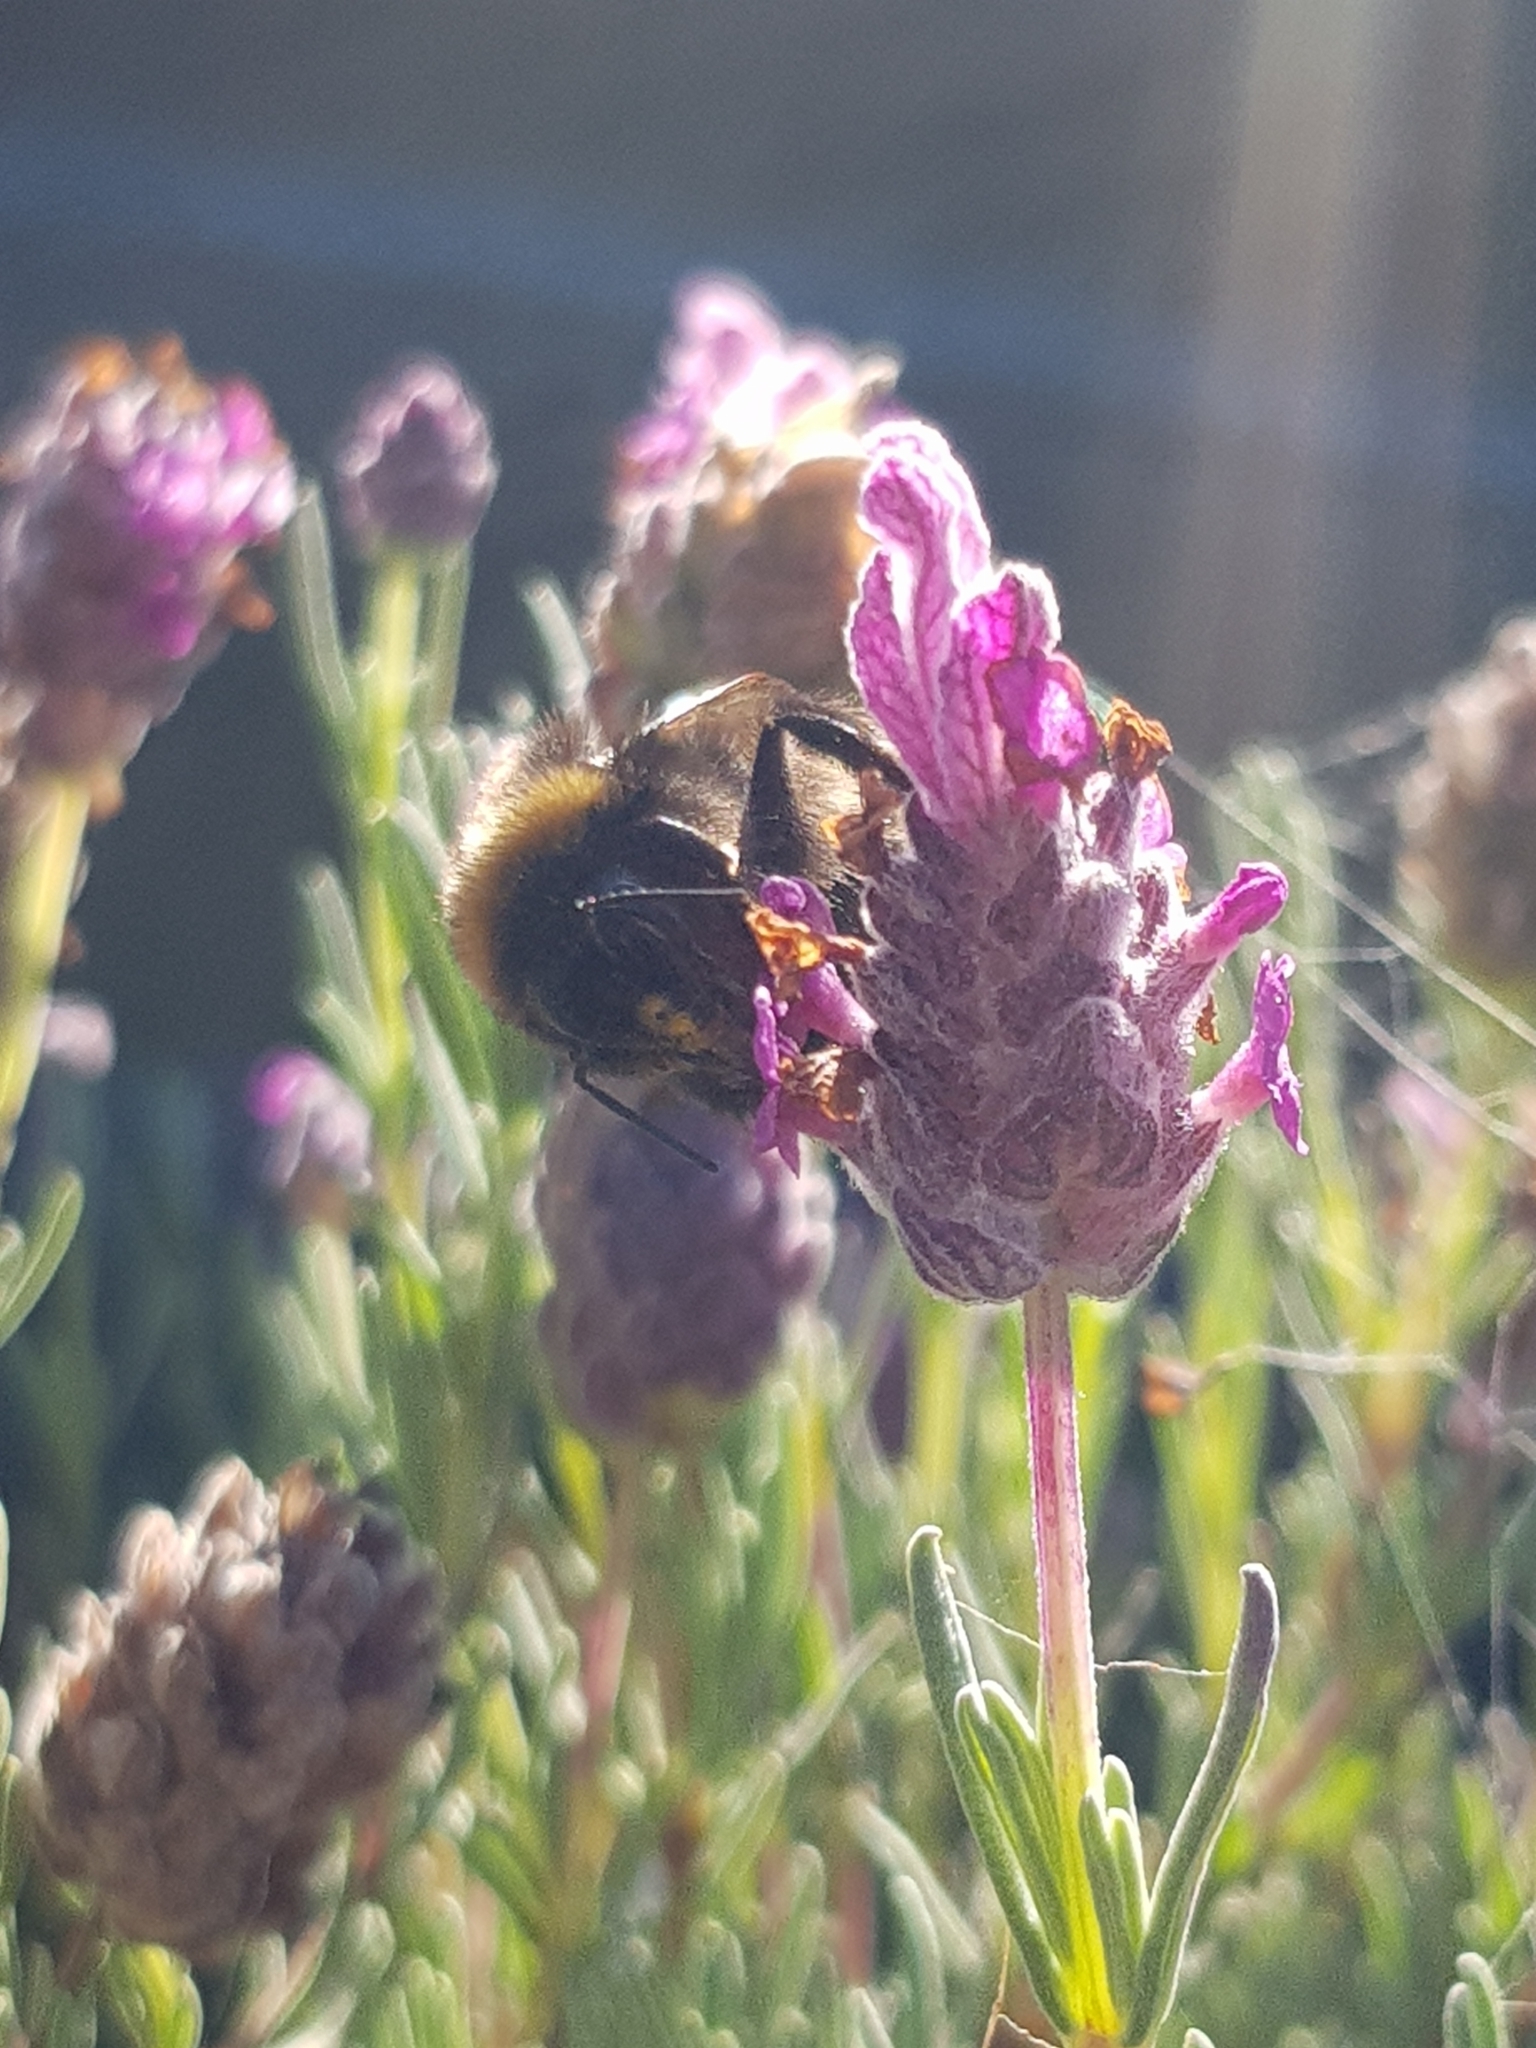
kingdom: Animalia
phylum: Arthropoda
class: Insecta
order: Hymenoptera
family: Apidae
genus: Bombus
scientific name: Bombus terrestris
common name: Buff-tailed bumblebee
